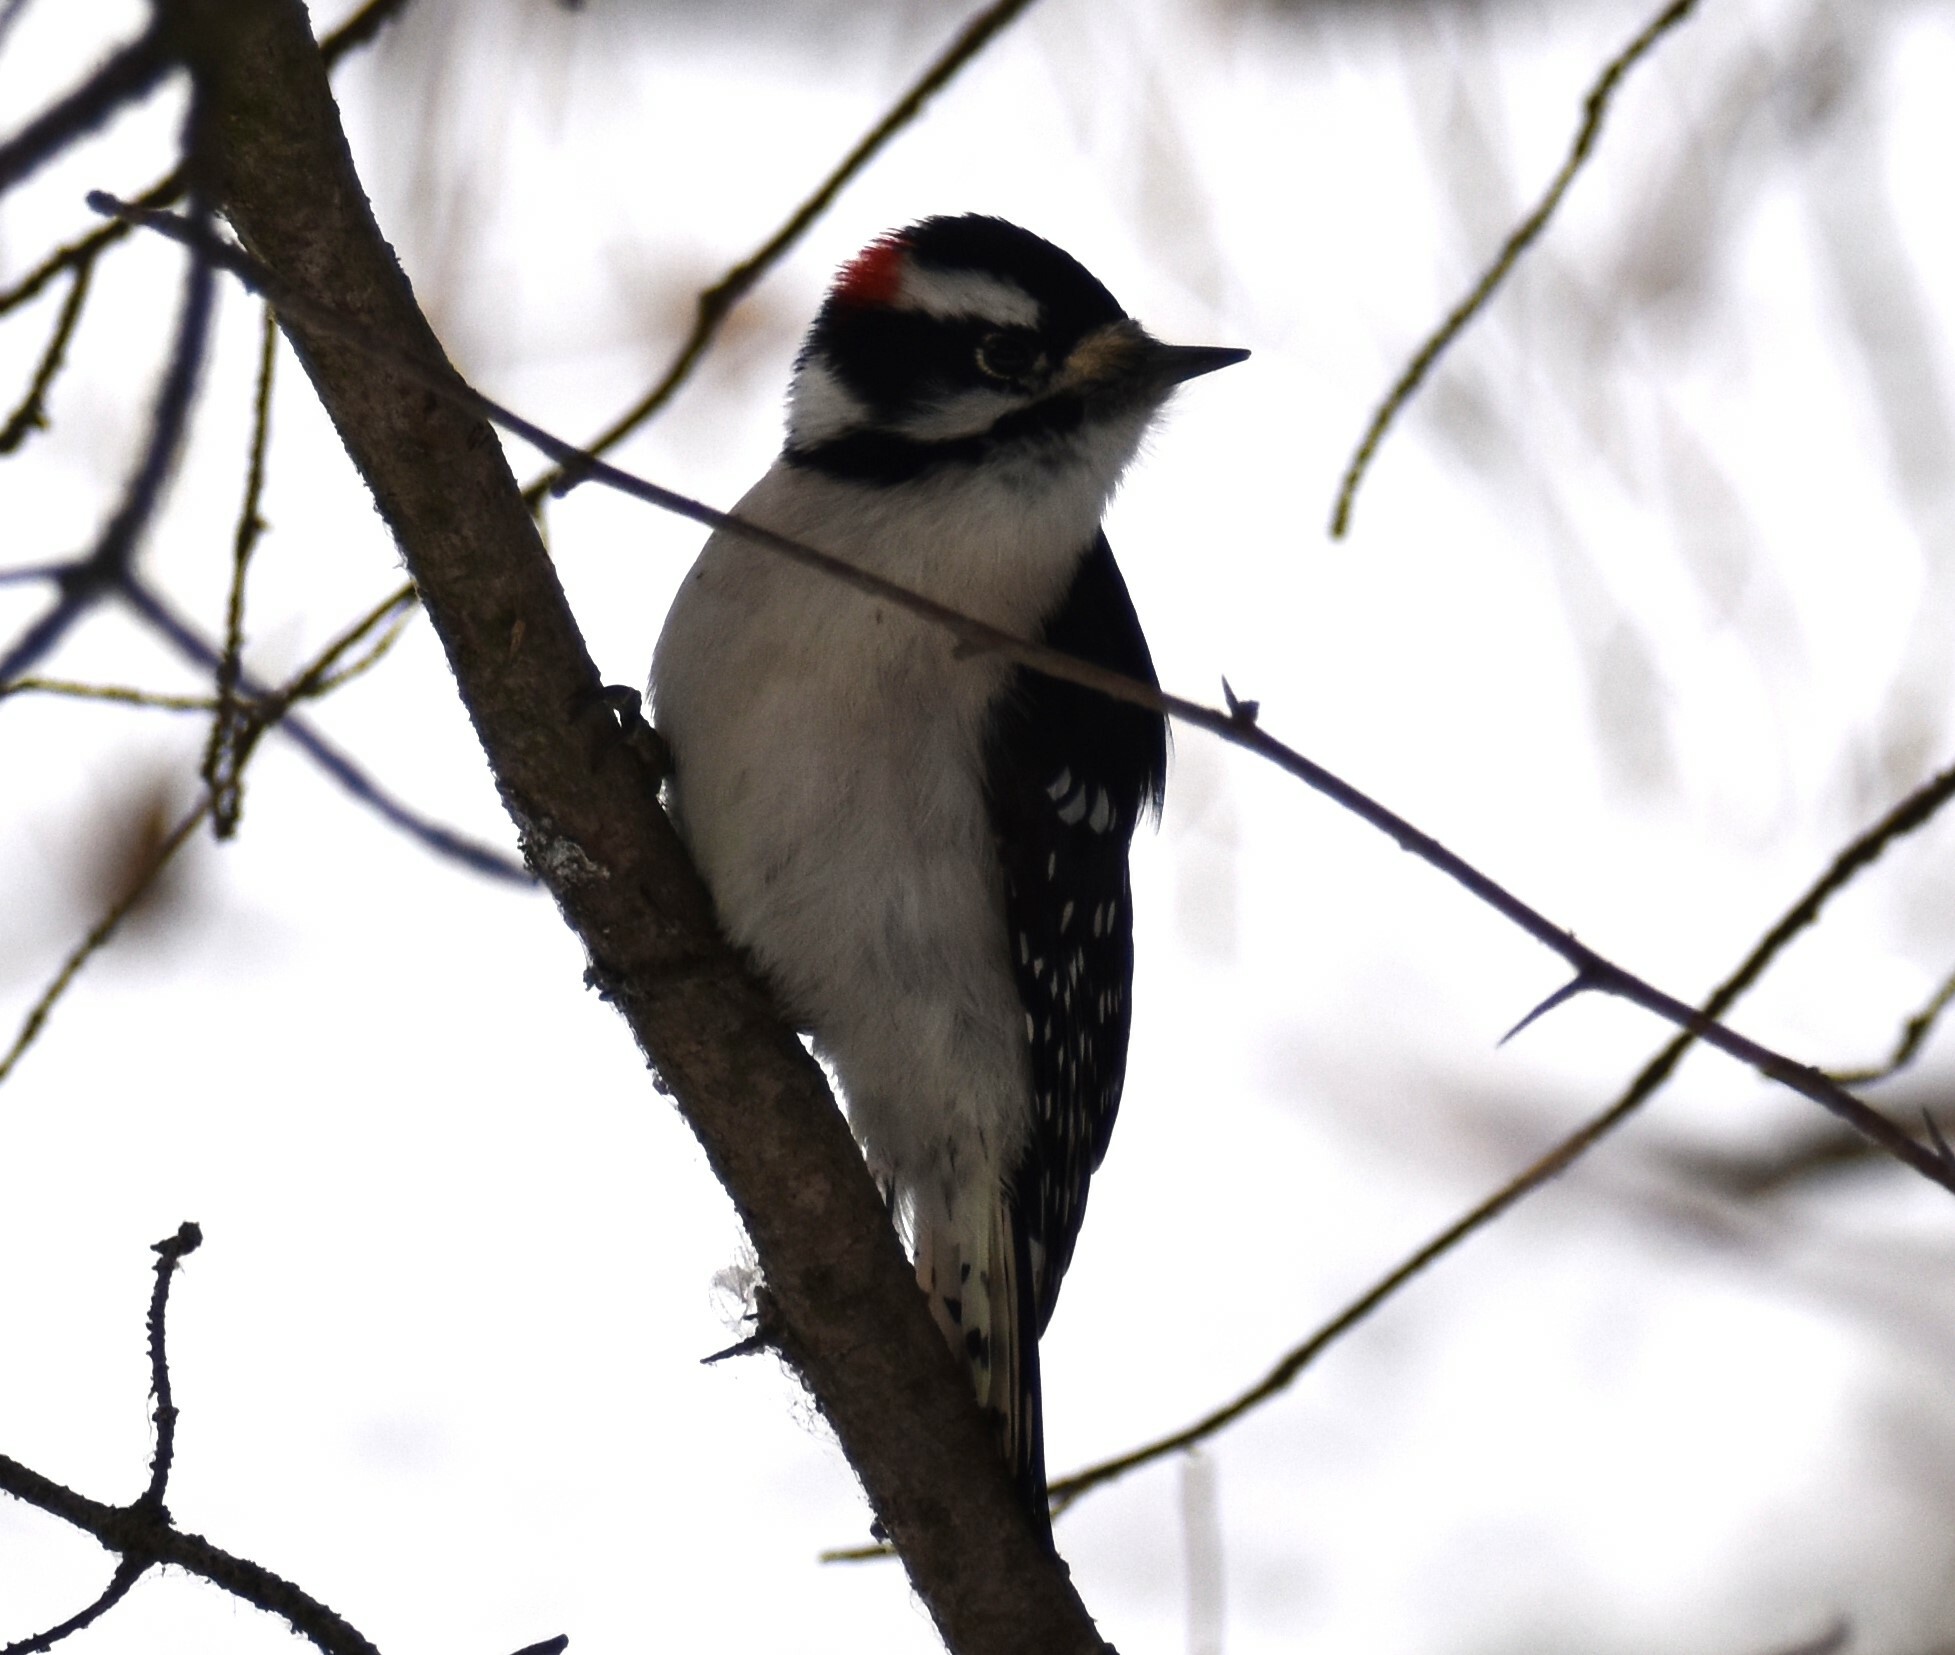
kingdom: Animalia
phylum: Chordata
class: Aves
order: Piciformes
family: Picidae
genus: Dryobates
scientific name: Dryobates pubescens
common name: Downy woodpecker
